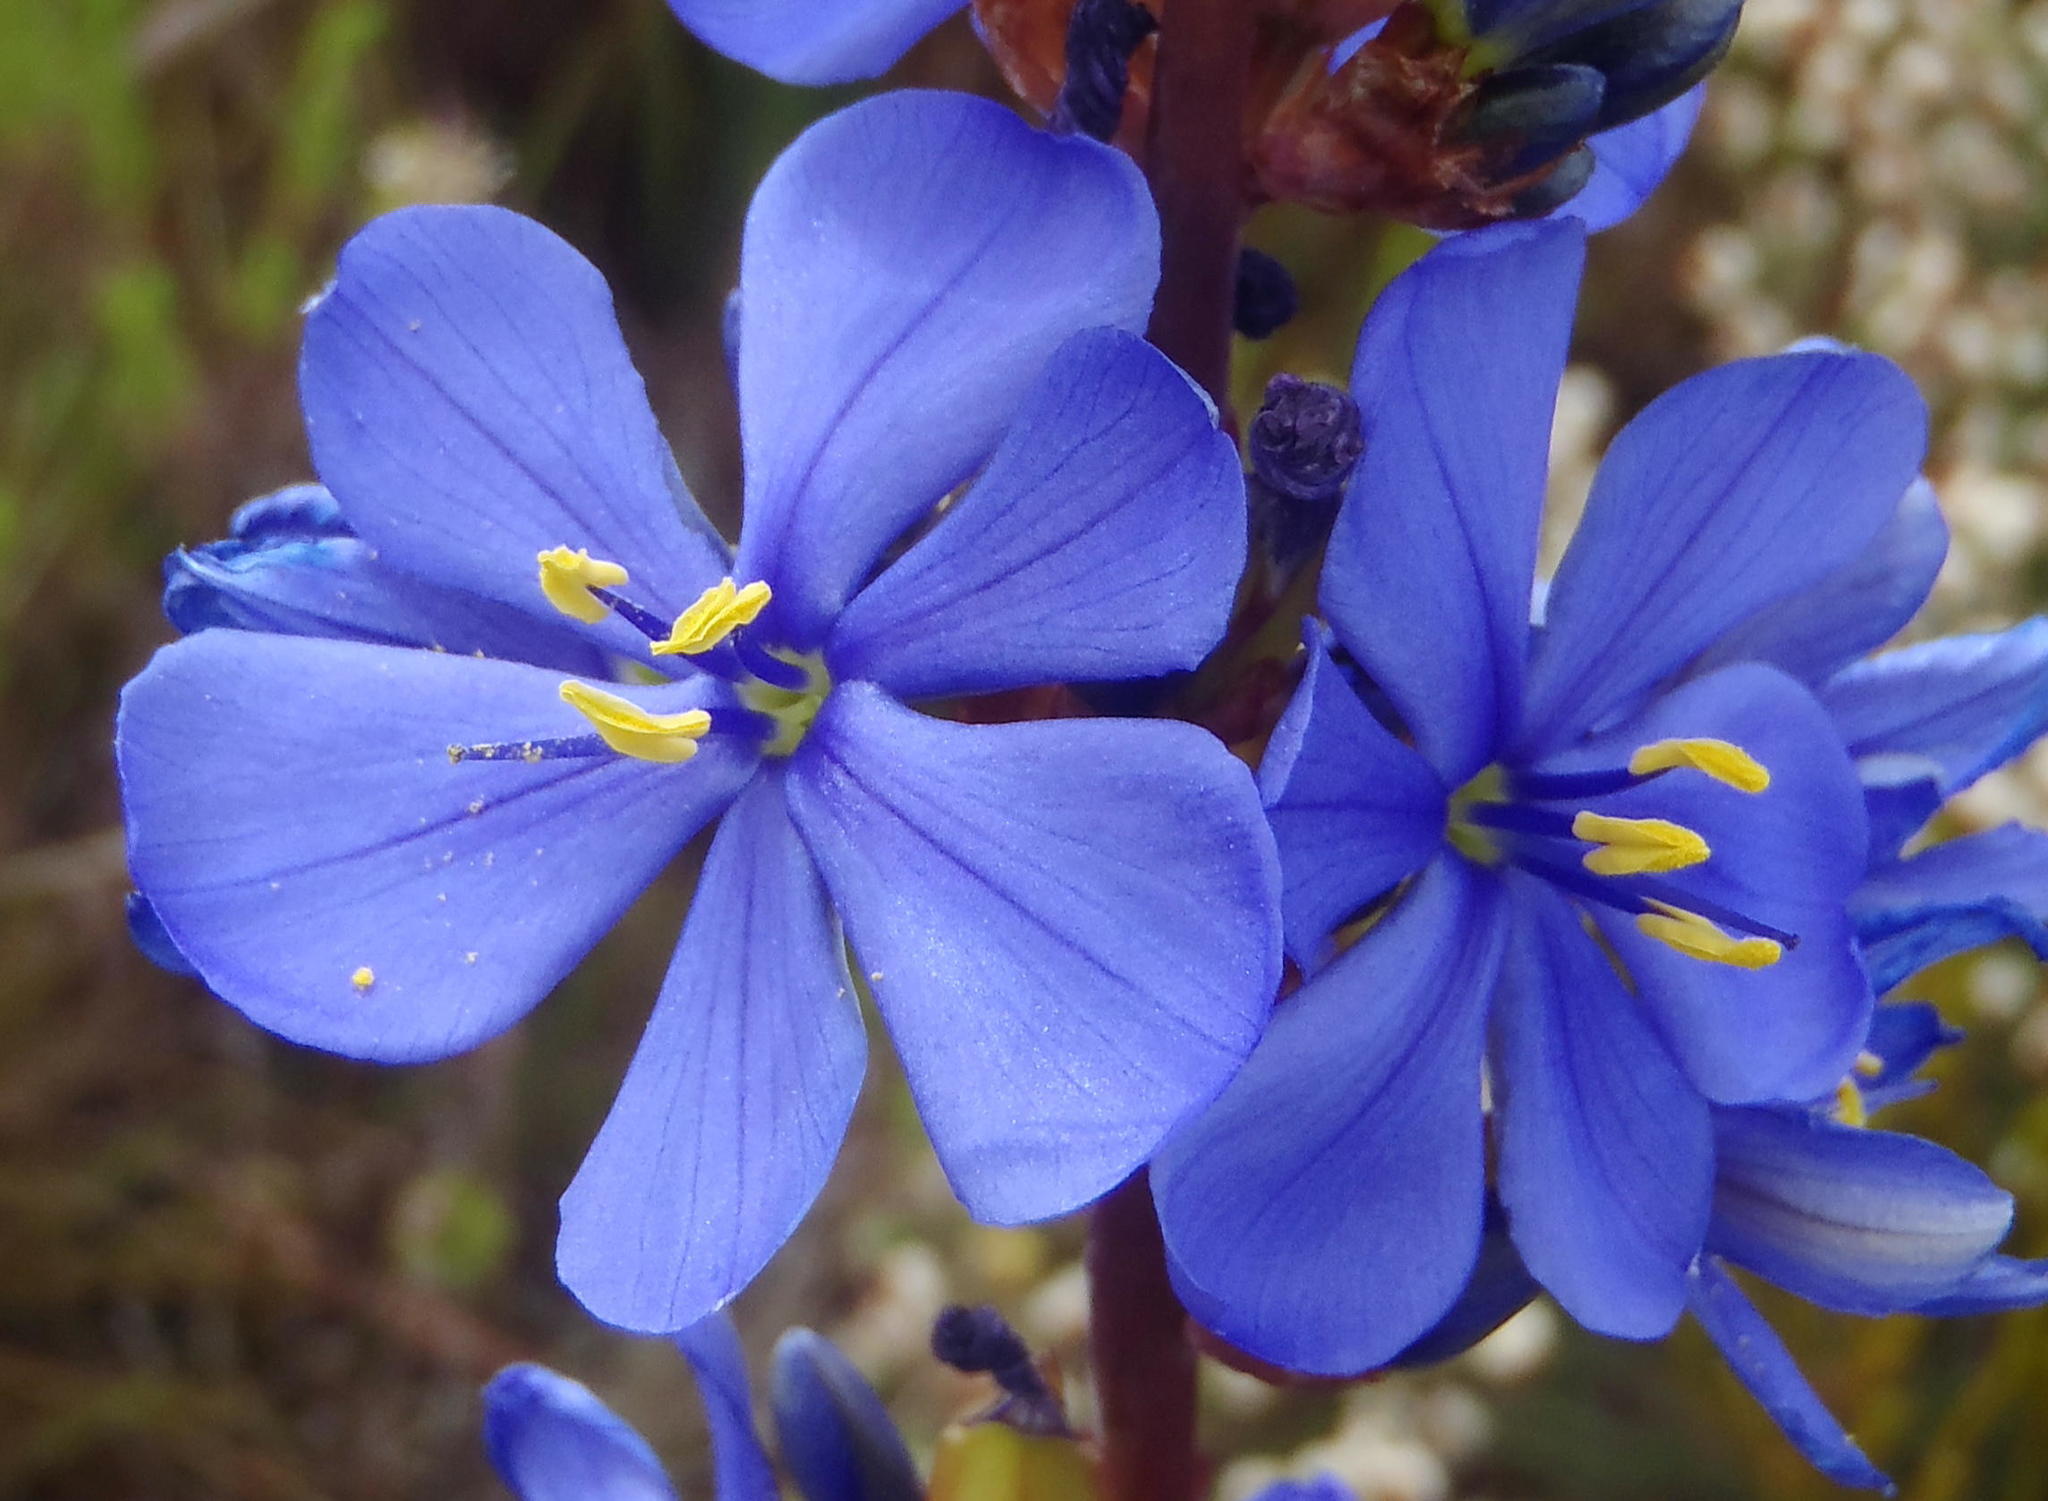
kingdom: Plantae
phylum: Tracheophyta
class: Liliopsida
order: Asparagales
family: Iridaceae
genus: Aristea
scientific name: Aristea bakeri
